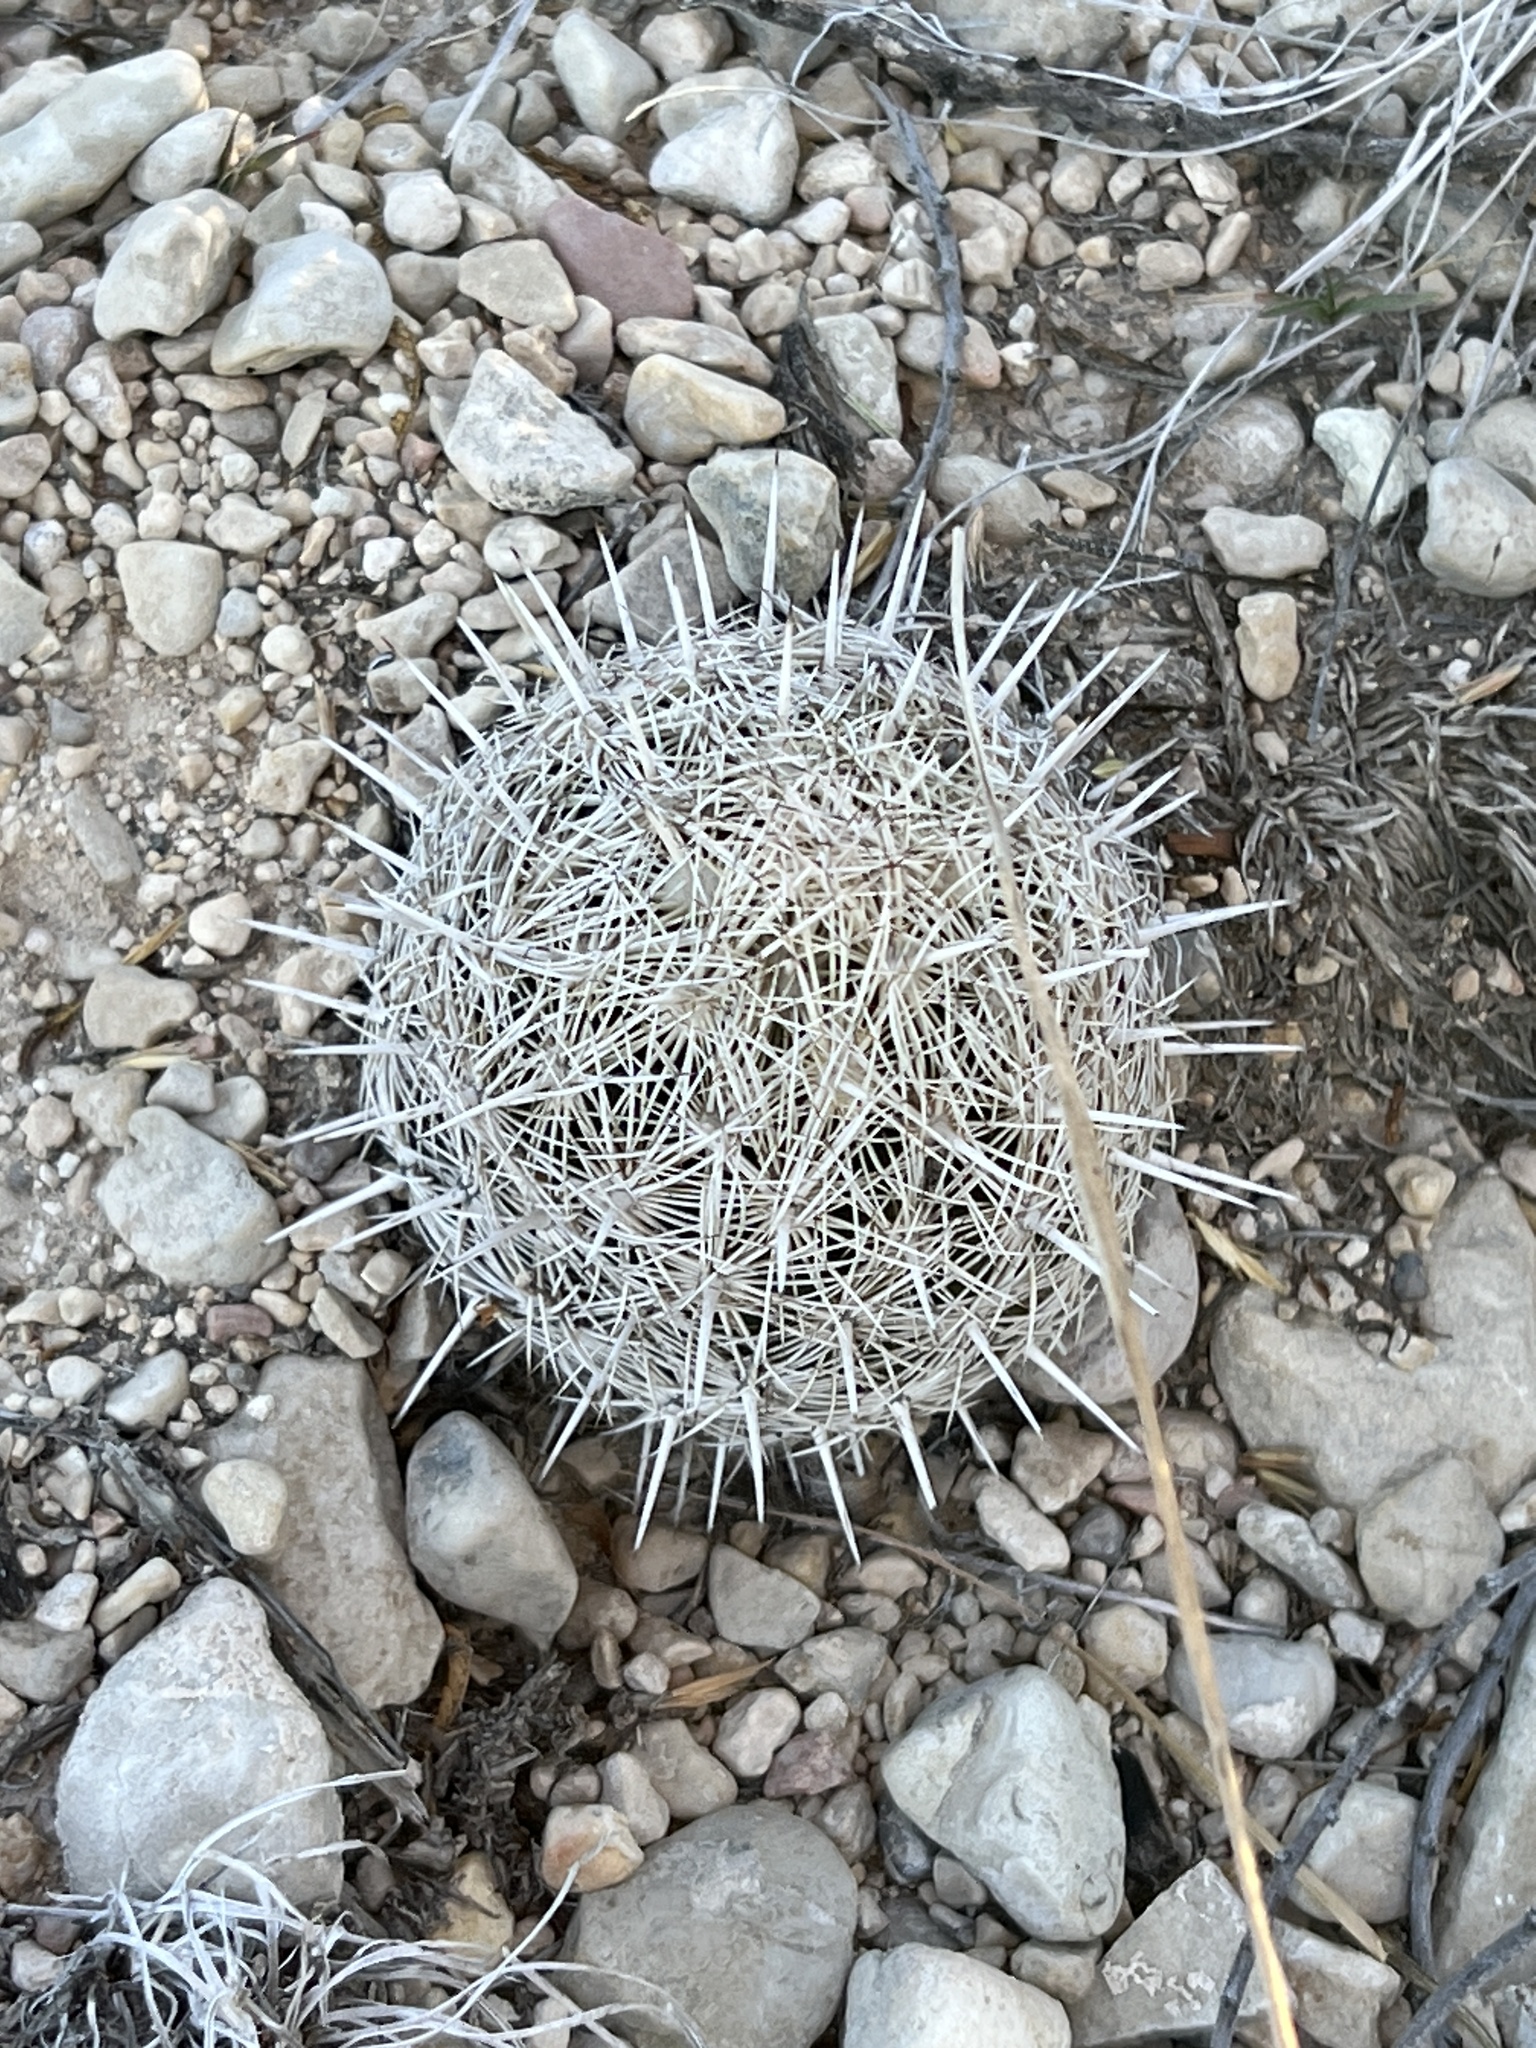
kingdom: Plantae
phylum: Tracheophyta
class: Magnoliopsida
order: Caryophyllales
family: Cactaceae
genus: Coryphantha
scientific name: Coryphantha echinus
